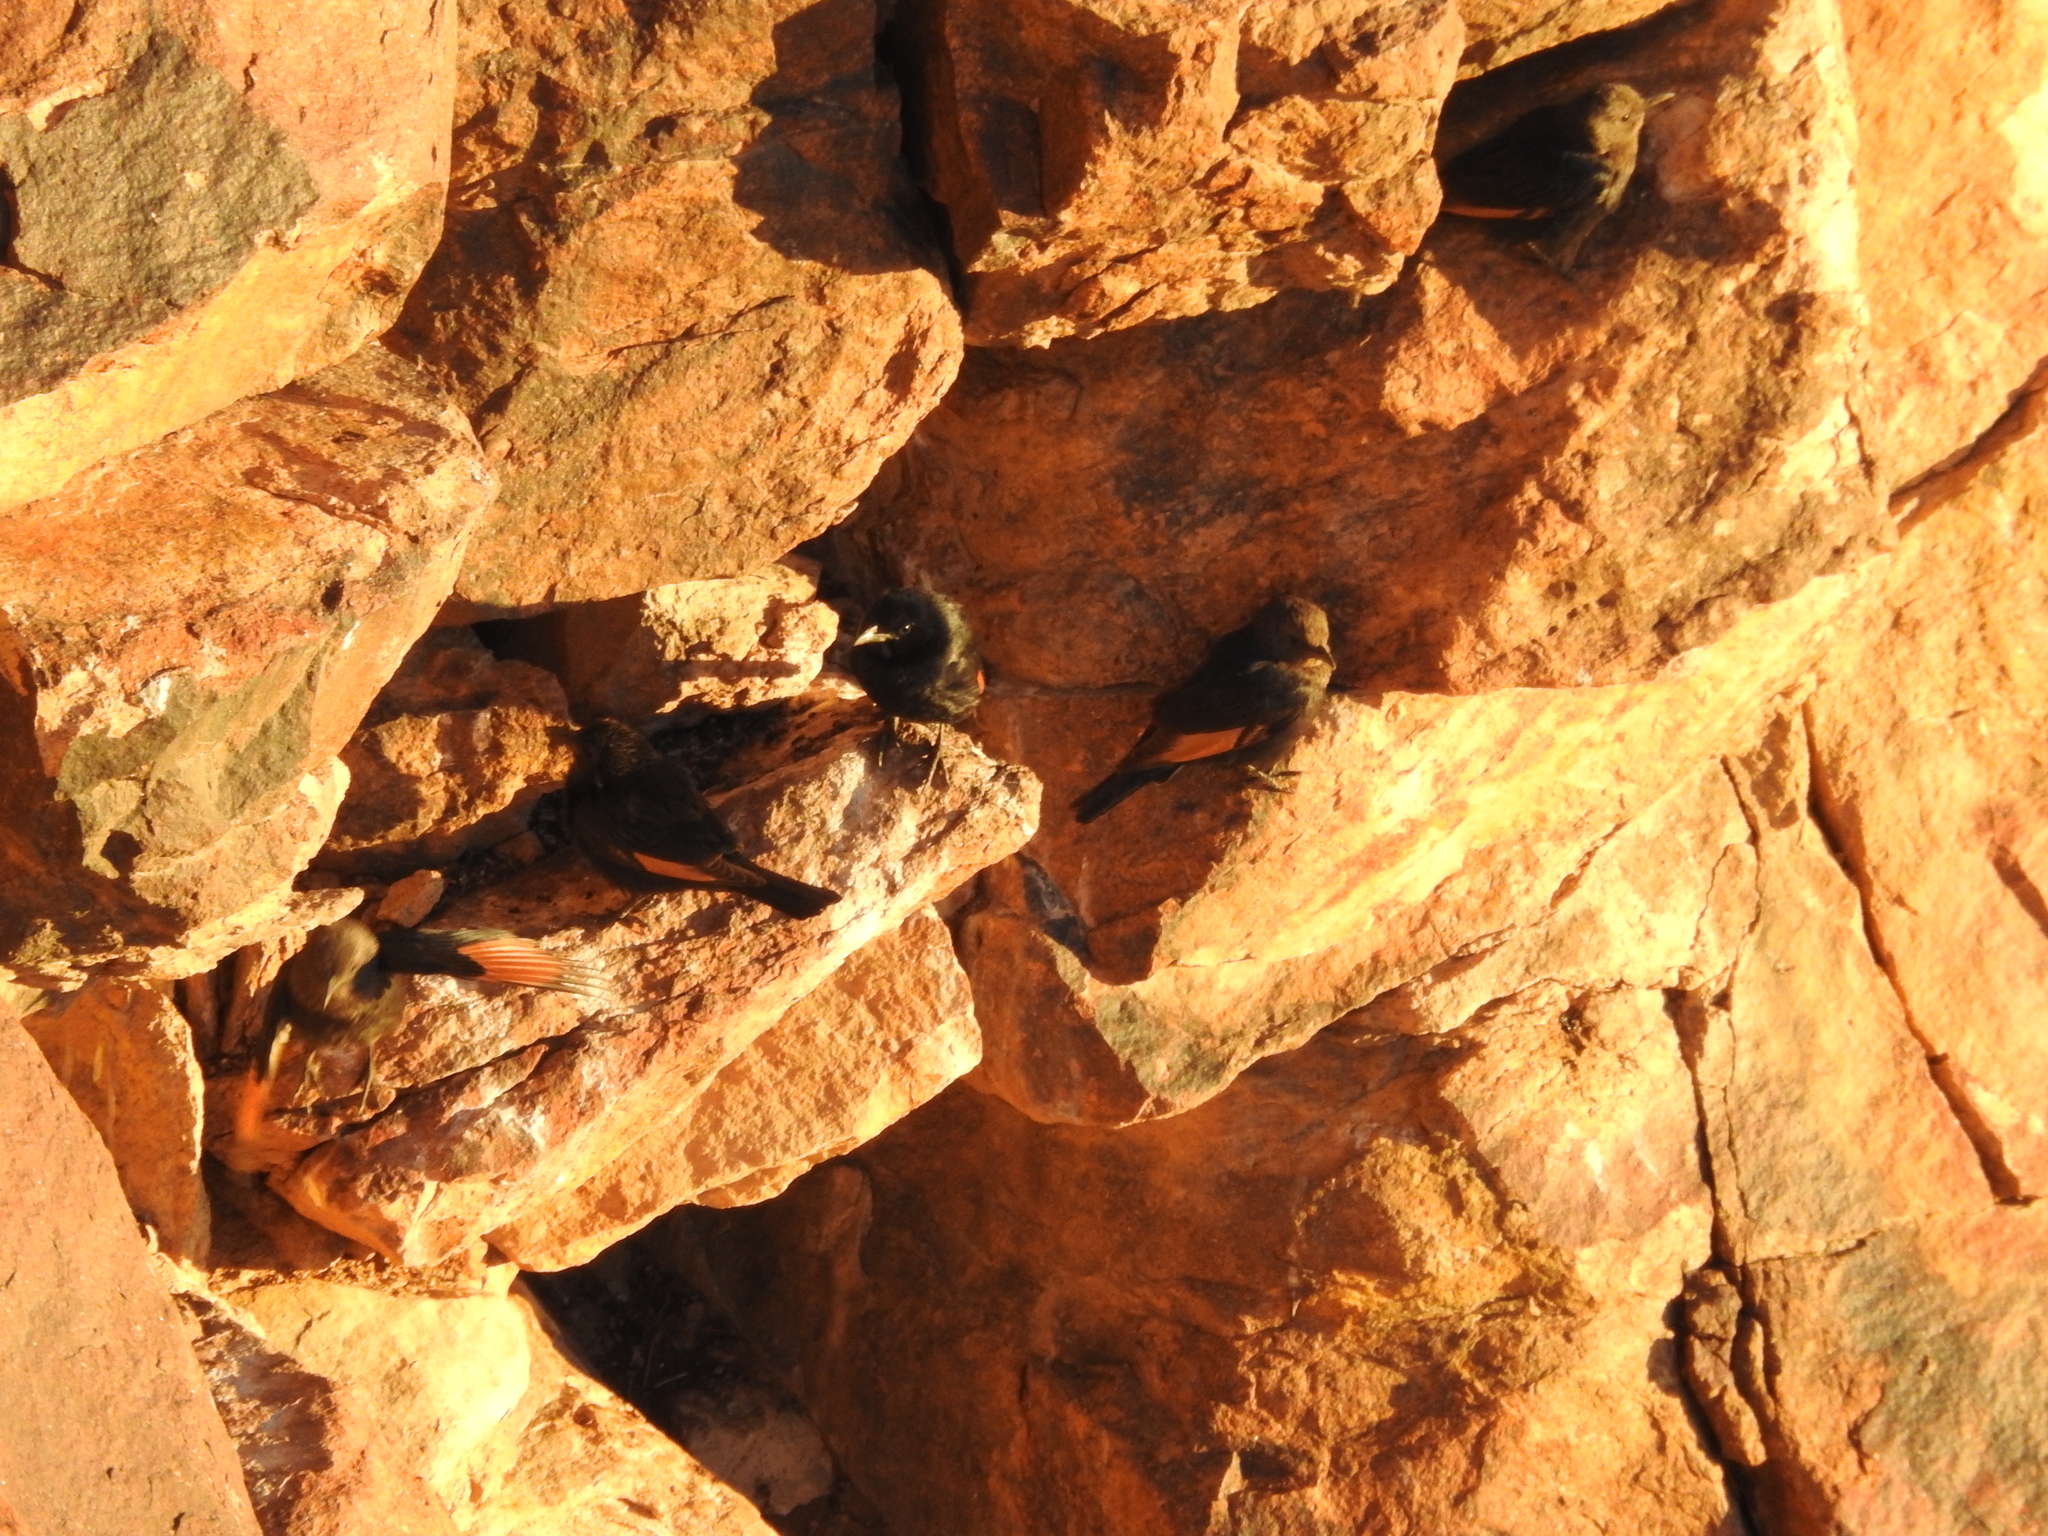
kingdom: Animalia
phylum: Chordata
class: Aves
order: Passeriformes
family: Sturnidae
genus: Onychognathus
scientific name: Onychognathus tristramii
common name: Tristram's starling
